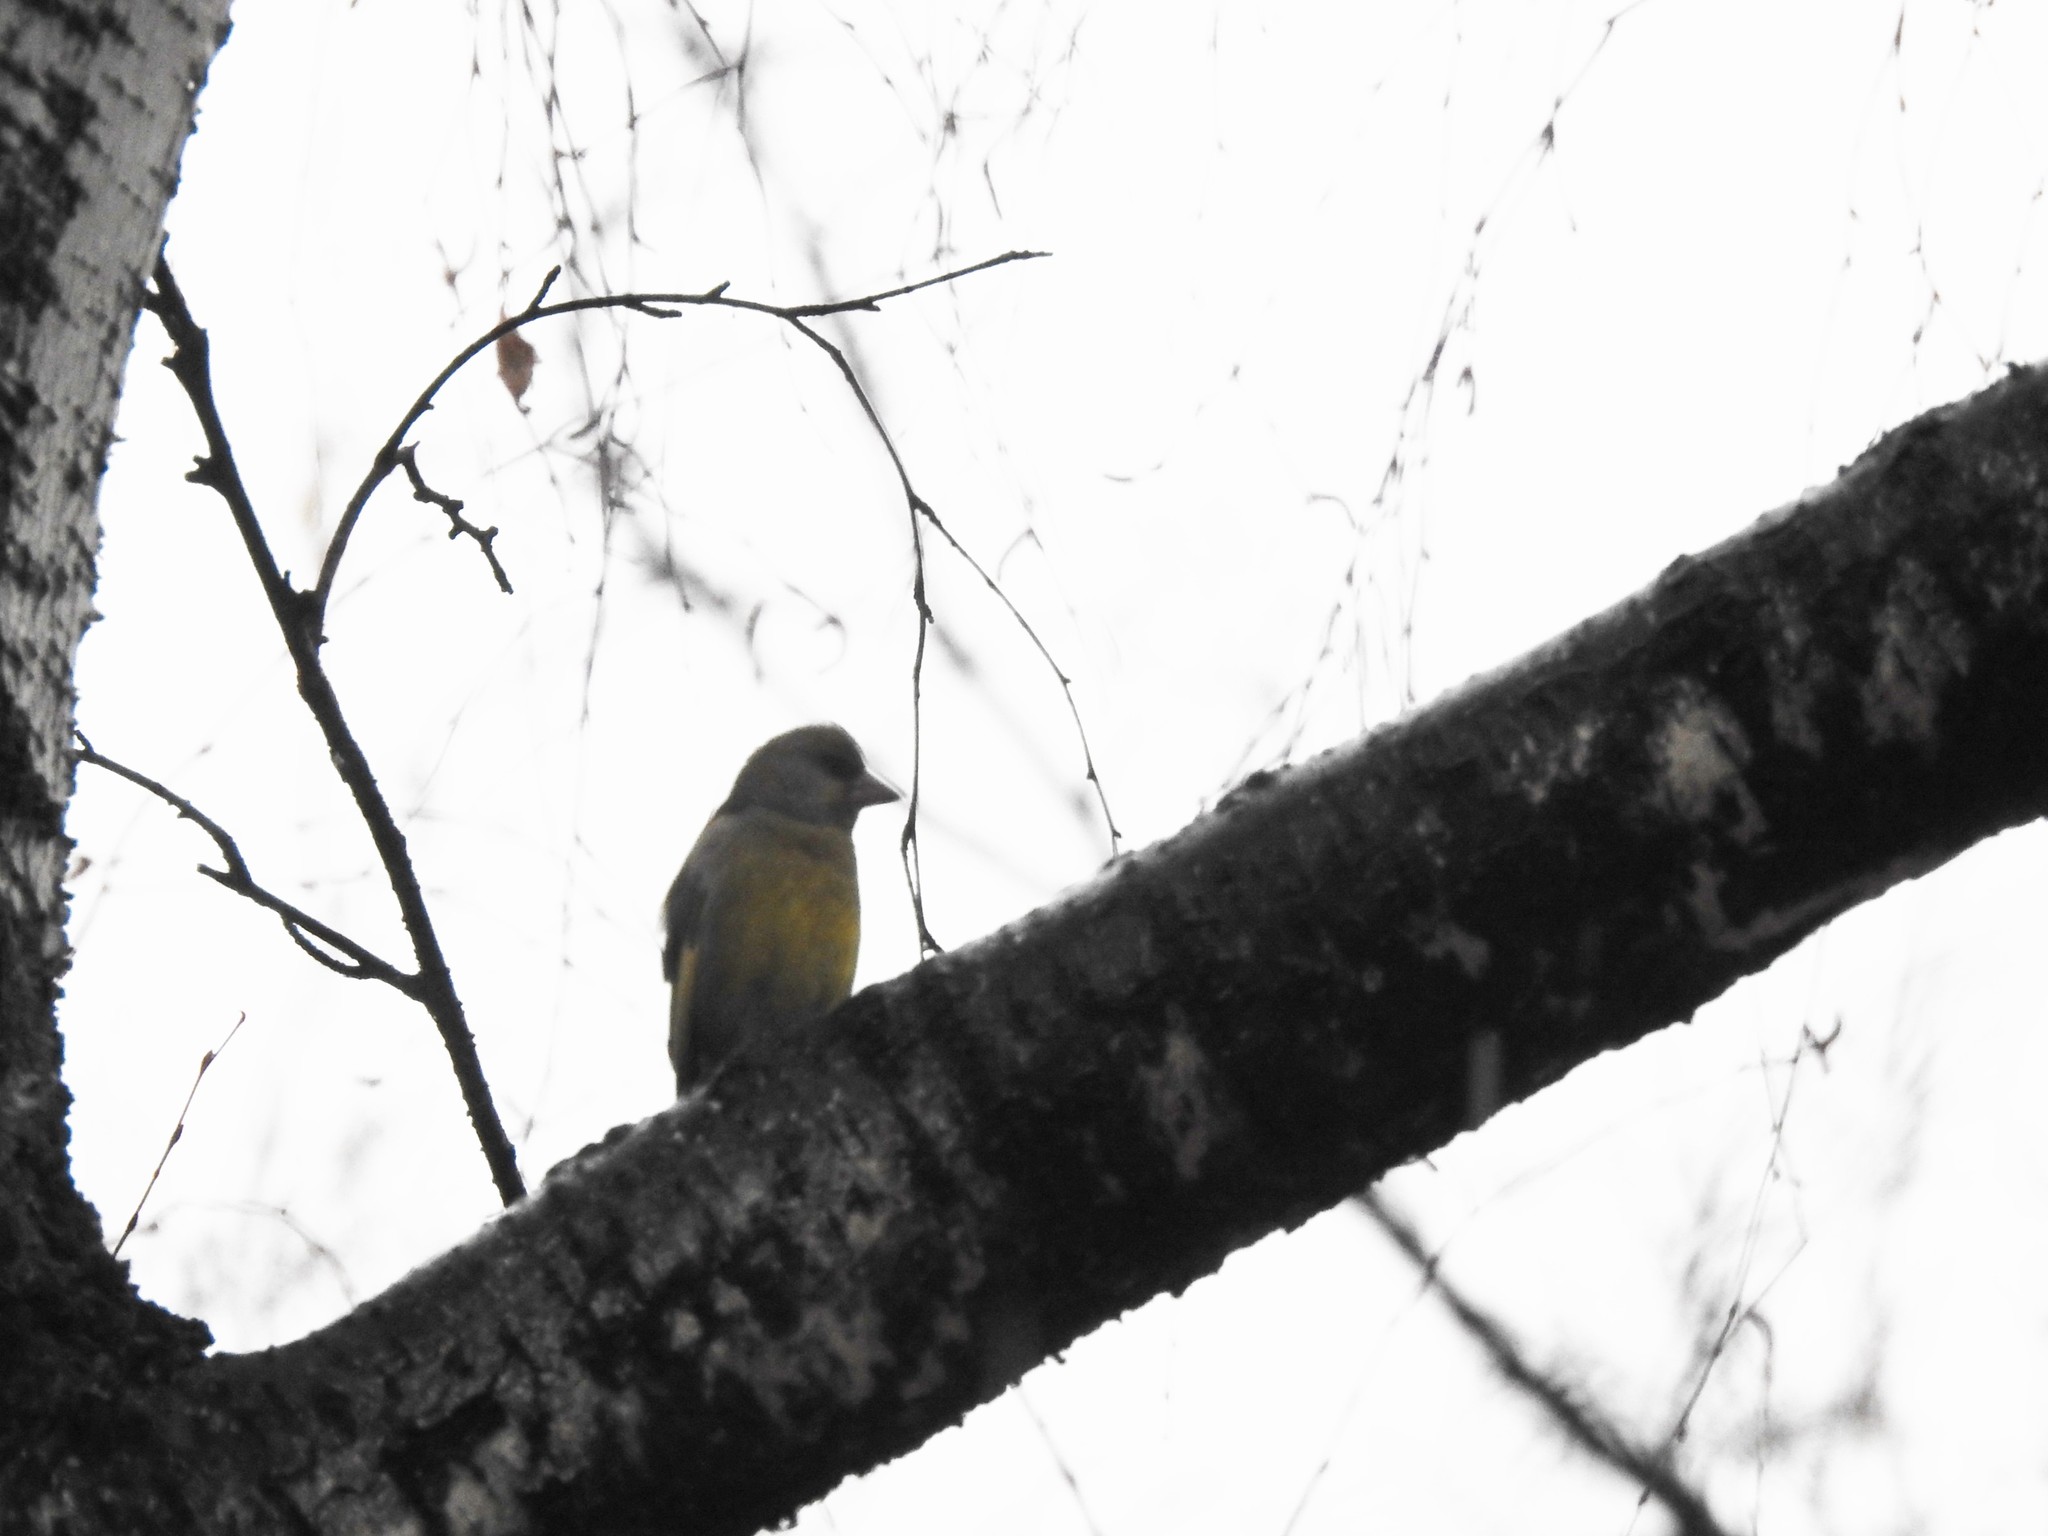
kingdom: Plantae
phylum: Tracheophyta
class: Liliopsida
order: Poales
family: Poaceae
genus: Chloris
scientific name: Chloris chloris
